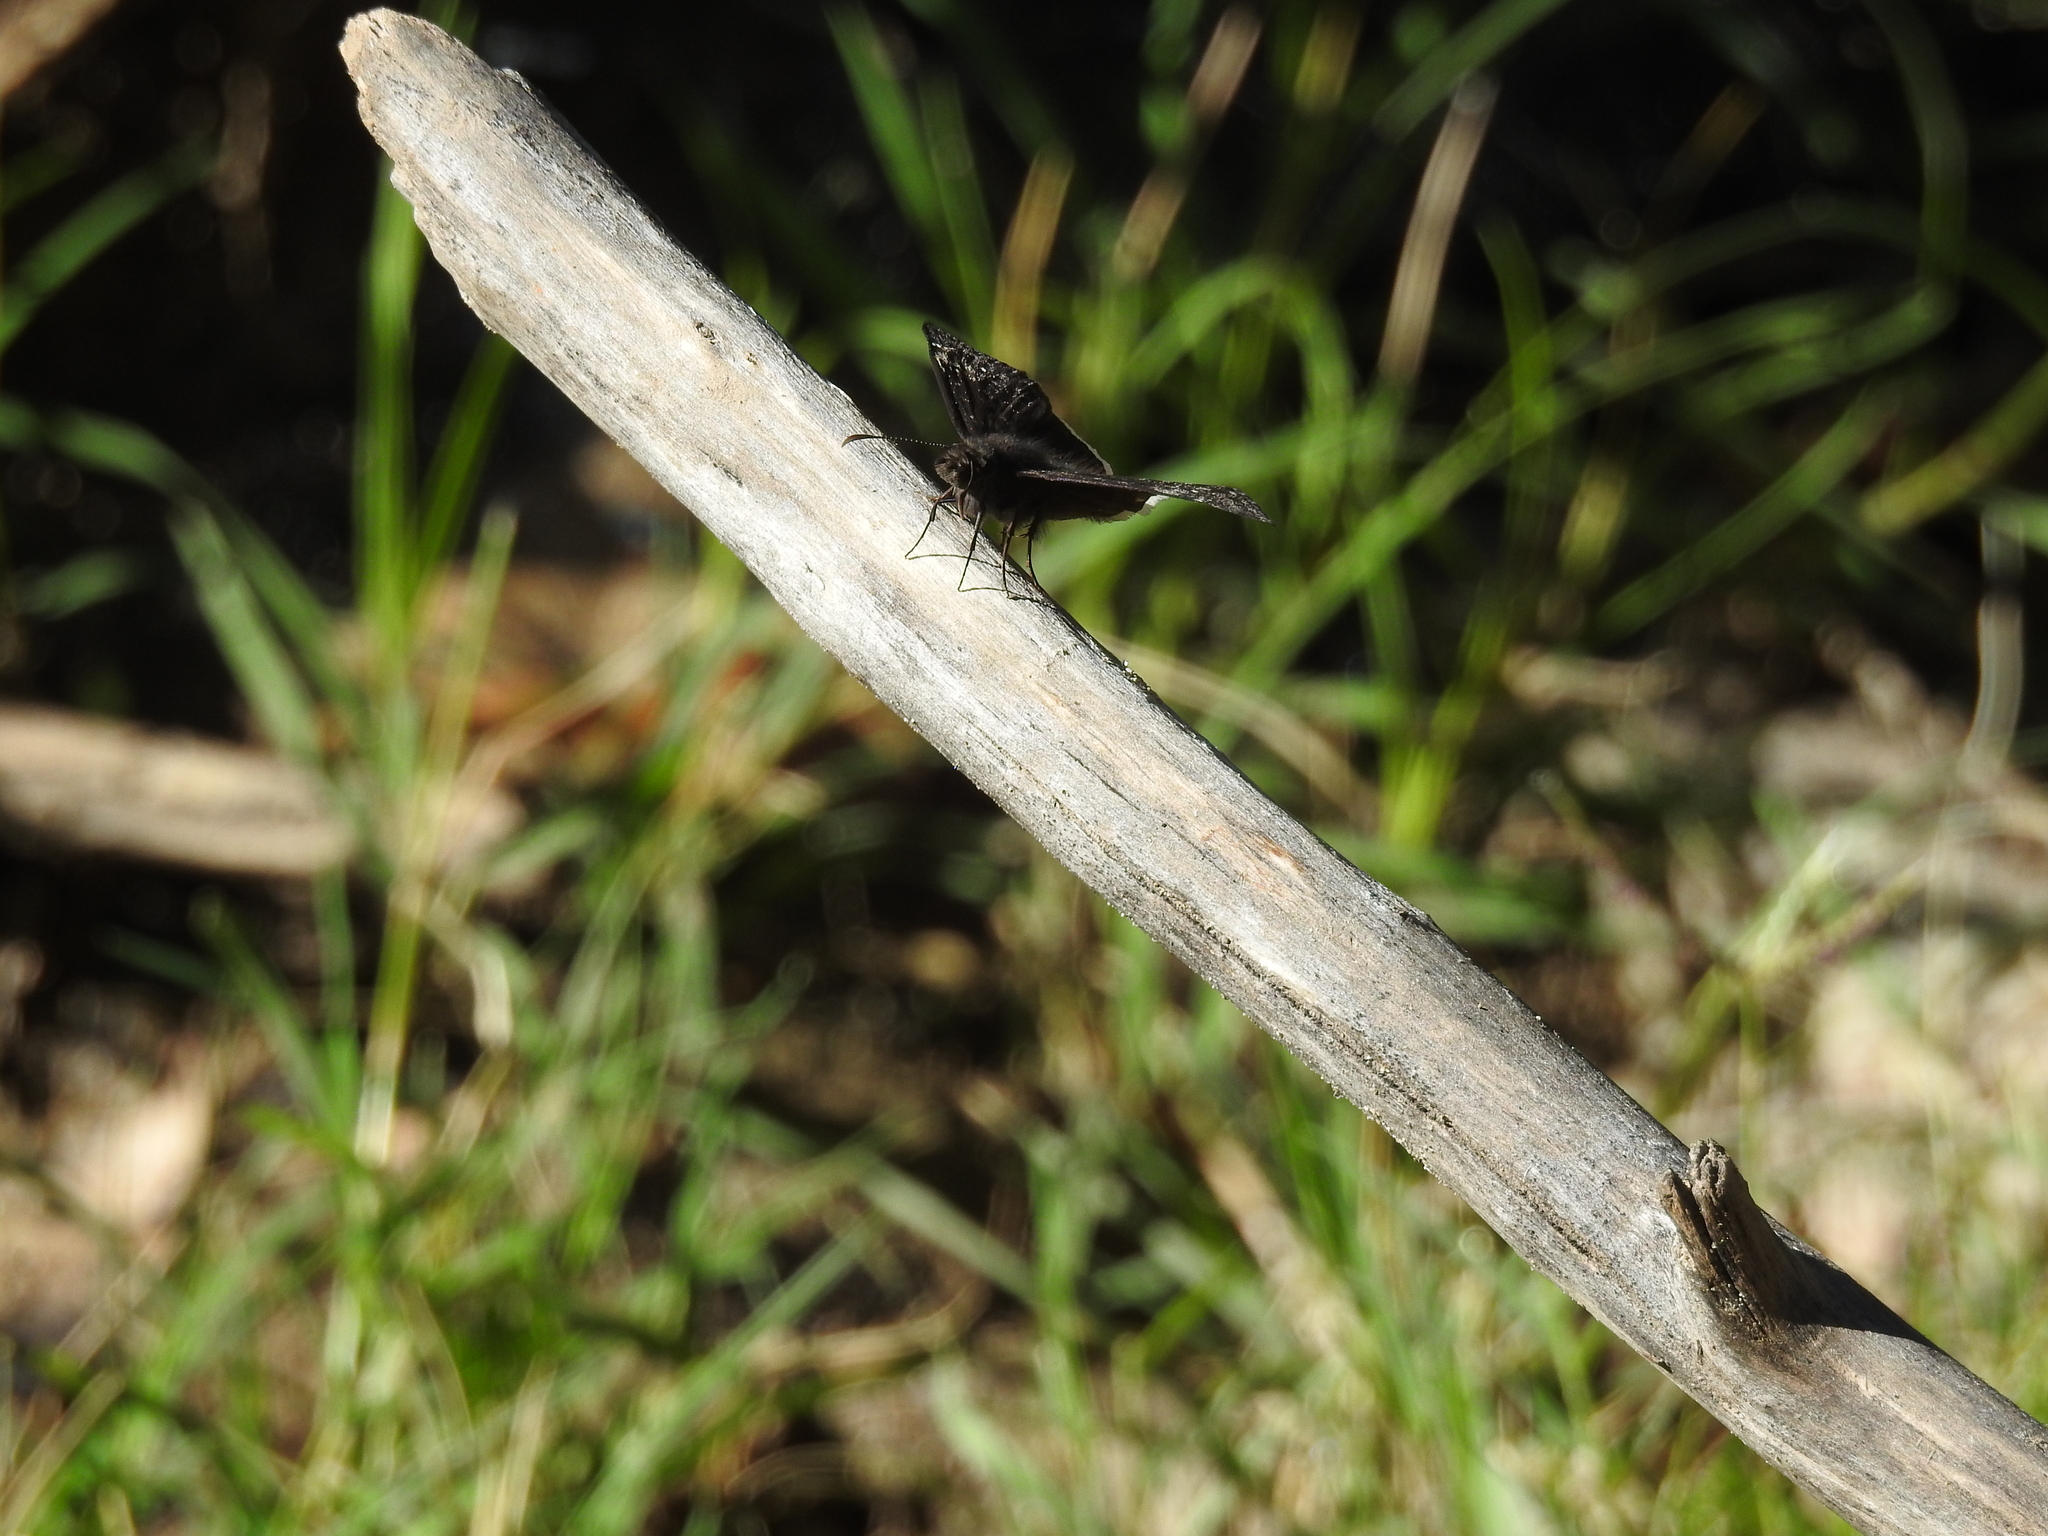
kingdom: Animalia
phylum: Arthropoda
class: Insecta
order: Lepidoptera
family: Hesperiidae
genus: Erynnis
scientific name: Erynnis funeralis
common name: Funereal duskywing
